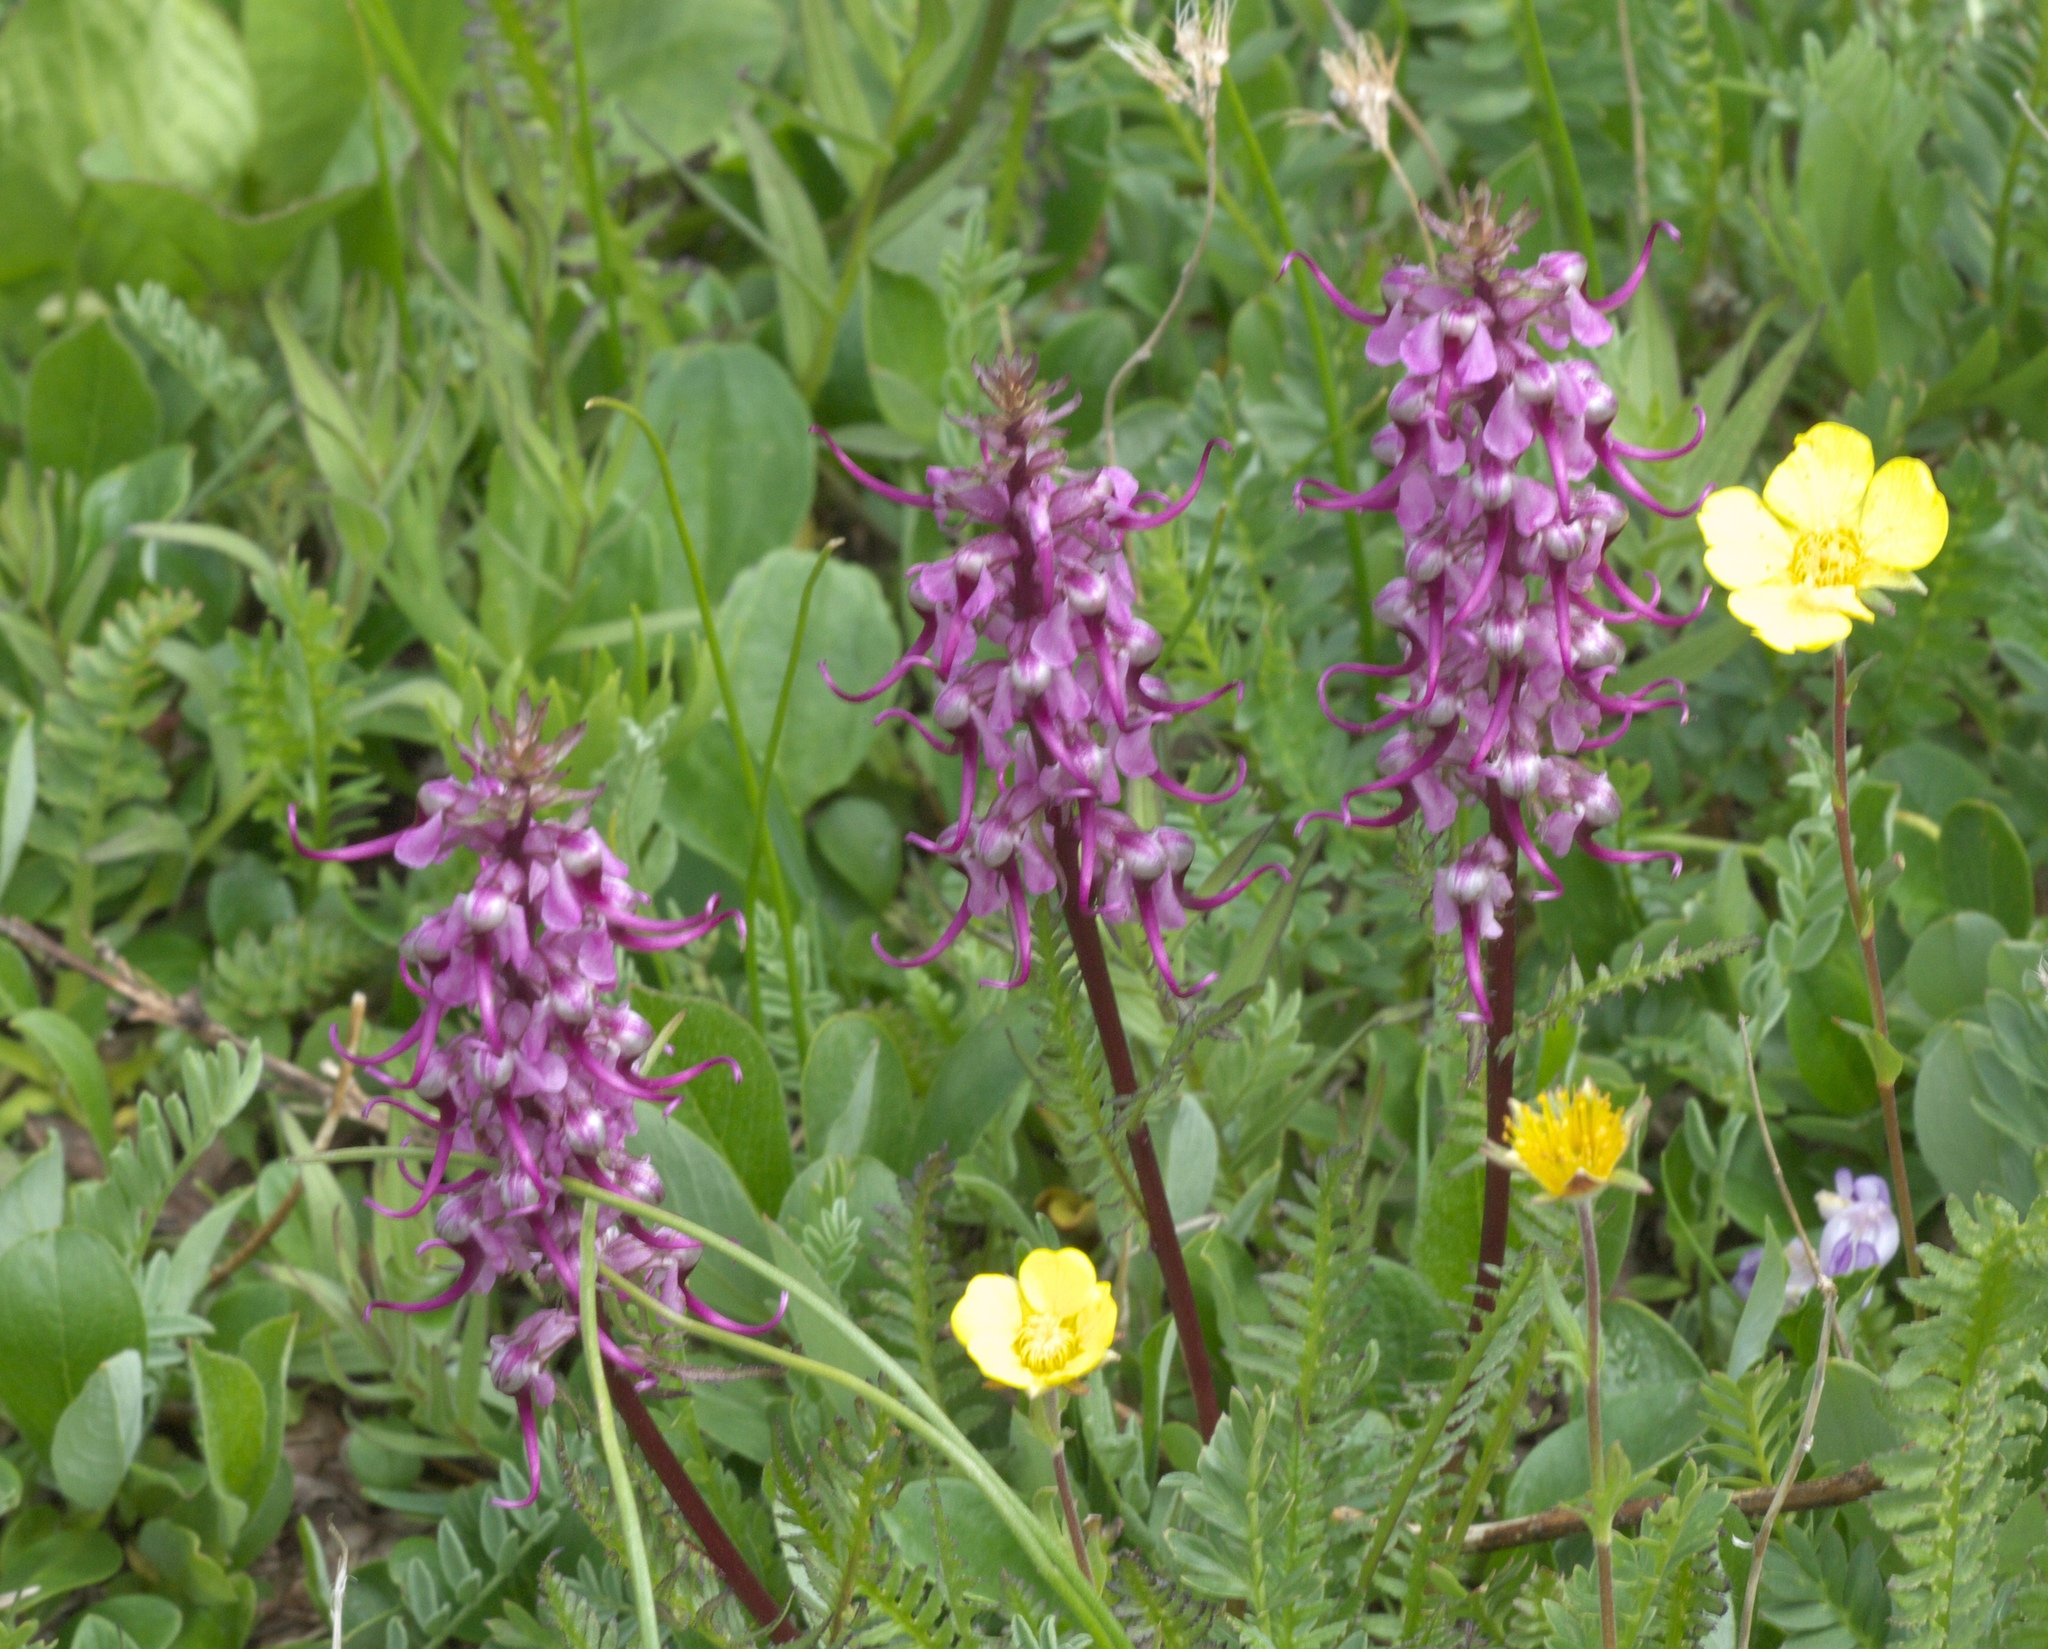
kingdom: Plantae
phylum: Tracheophyta
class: Magnoliopsida
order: Lamiales
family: Orobanchaceae
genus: Pedicularis
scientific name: Pedicularis groenlandica
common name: Elephant's-head
